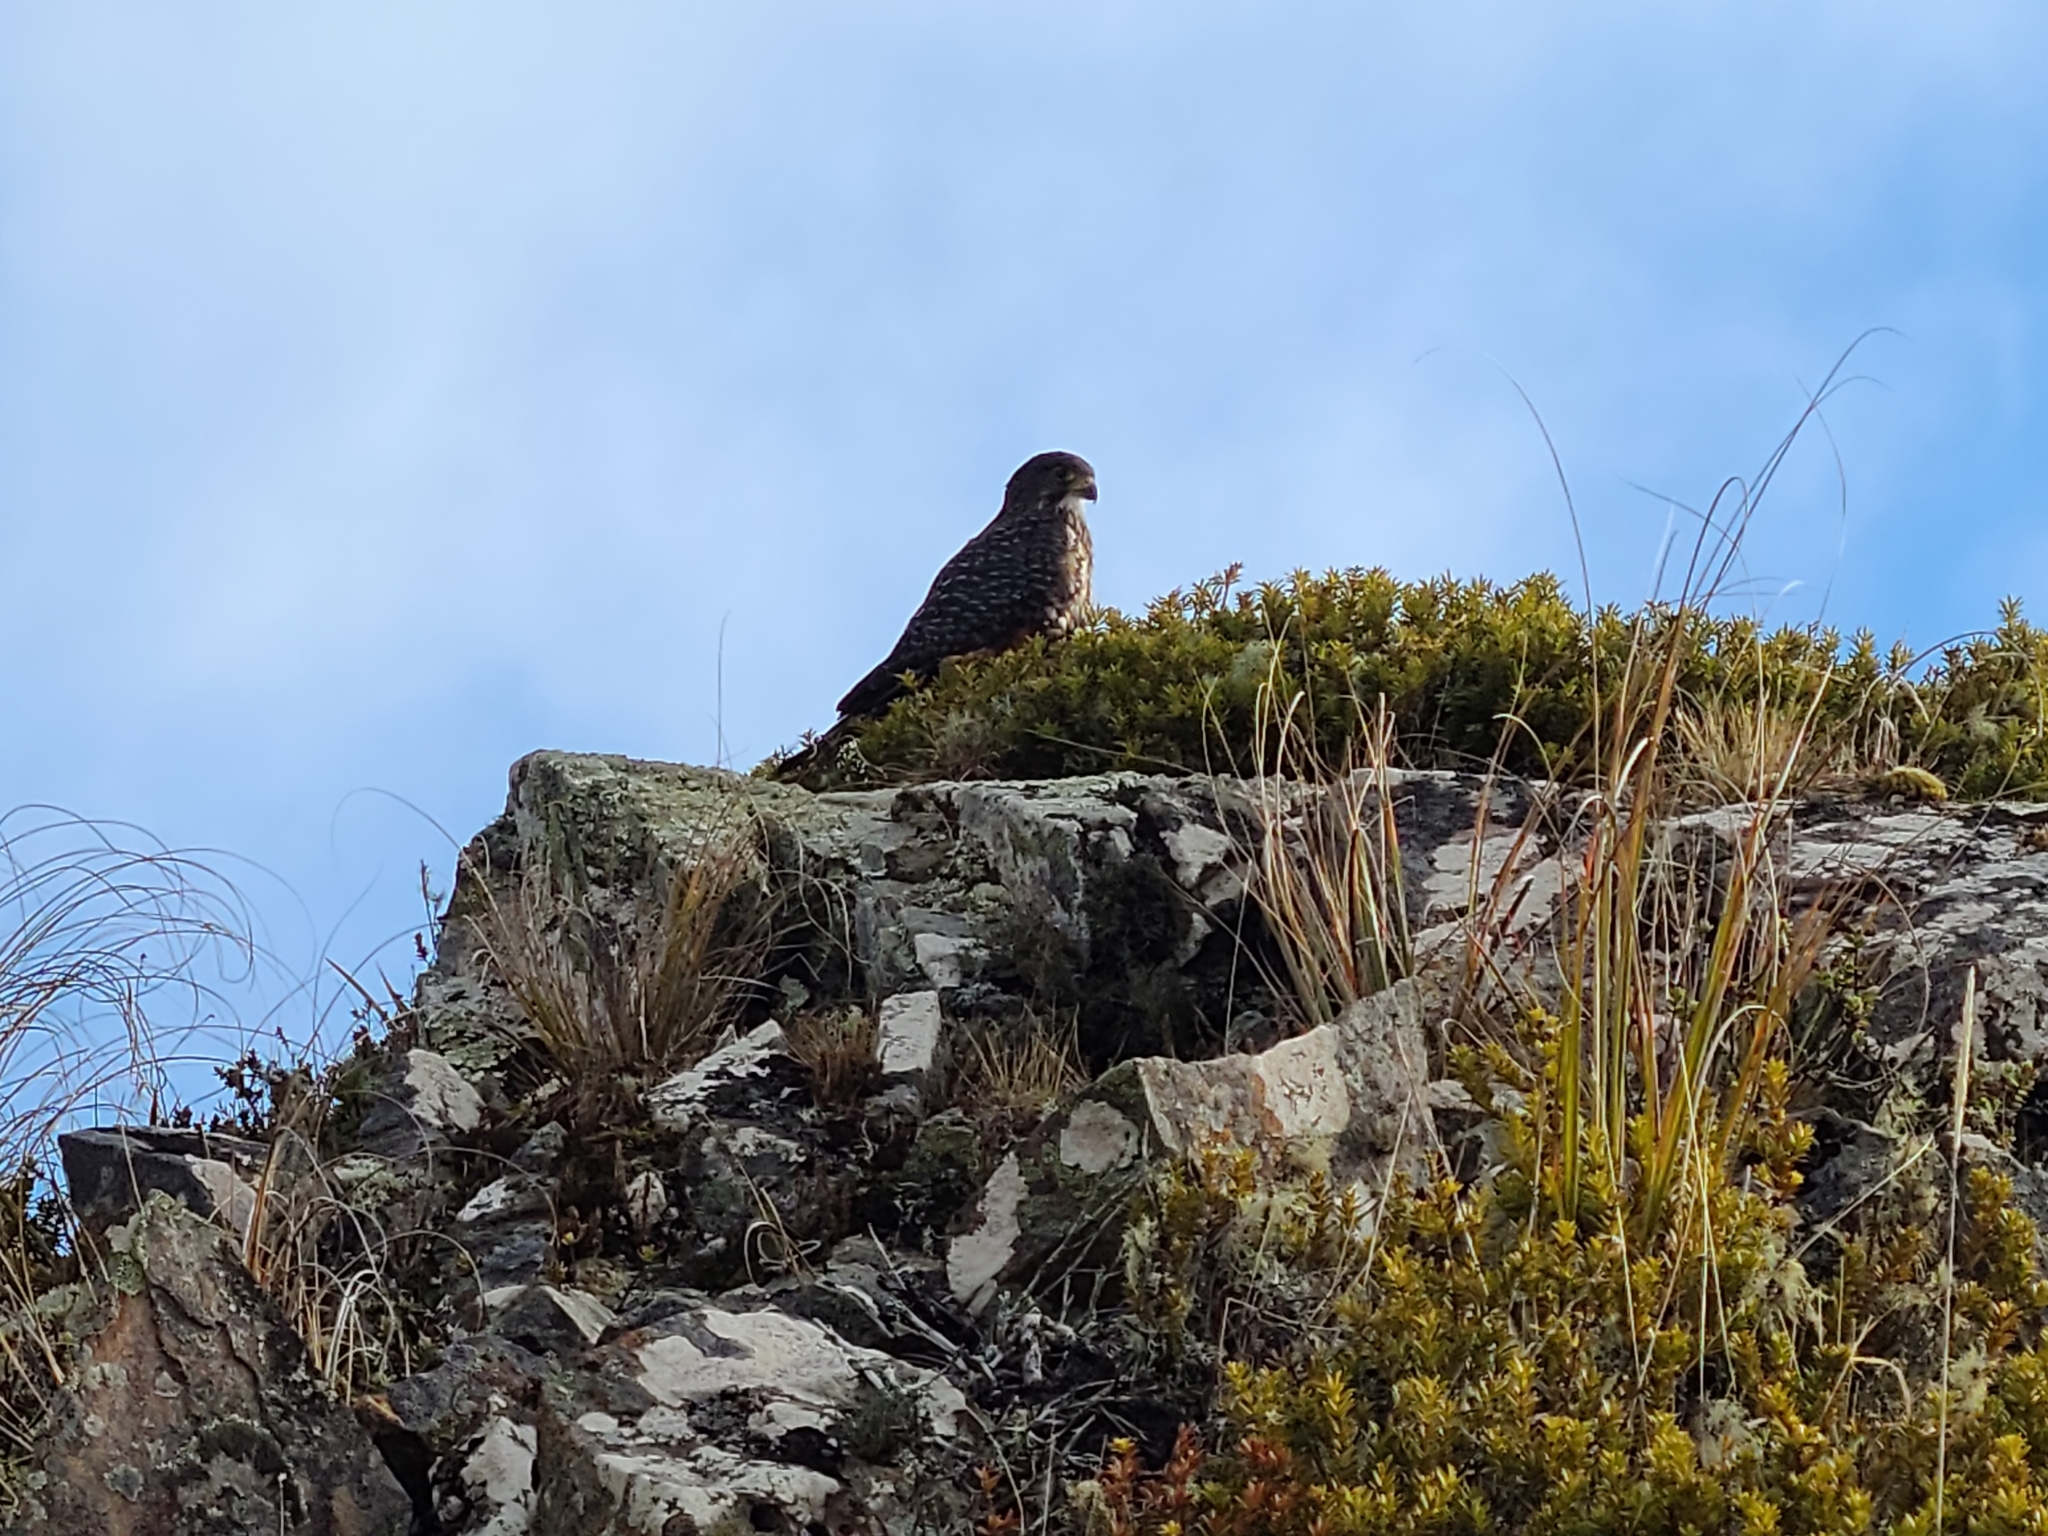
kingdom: Animalia
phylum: Chordata
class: Aves
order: Falconiformes
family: Falconidae
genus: Falco
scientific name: Falco novaeseelandiae
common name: New zealand falcon
